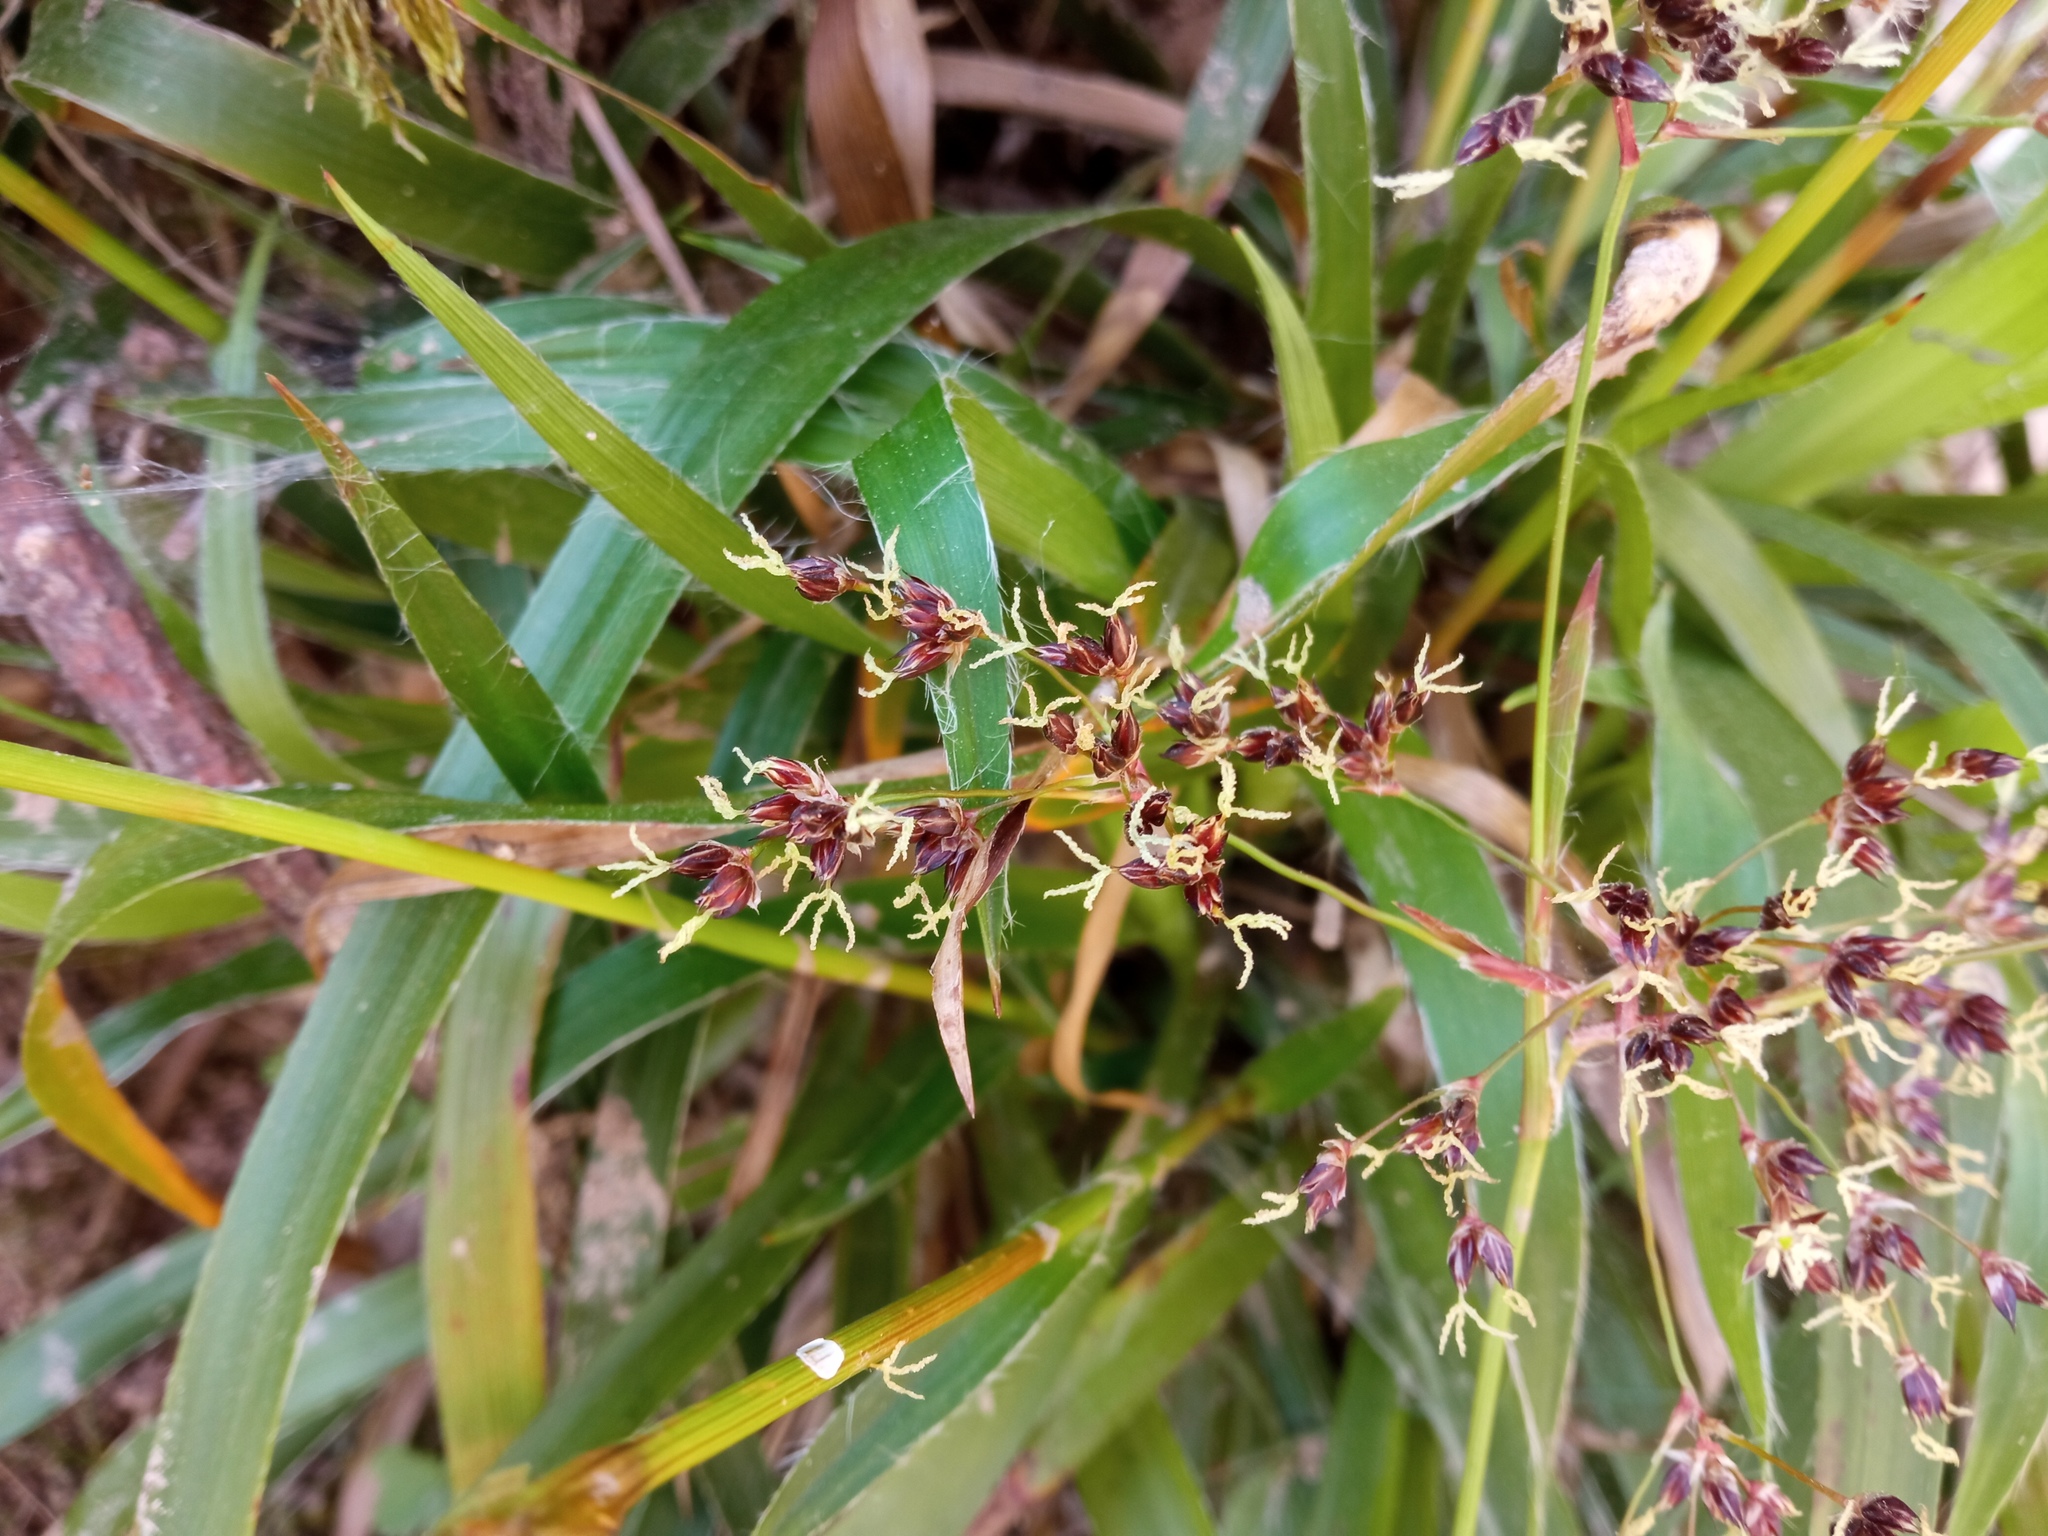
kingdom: Plantae
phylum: Tracheophyta
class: Liliopsida
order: Poales
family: Juncaceae
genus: Luzula
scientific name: Luzula sylvatica
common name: Great wood-rush
